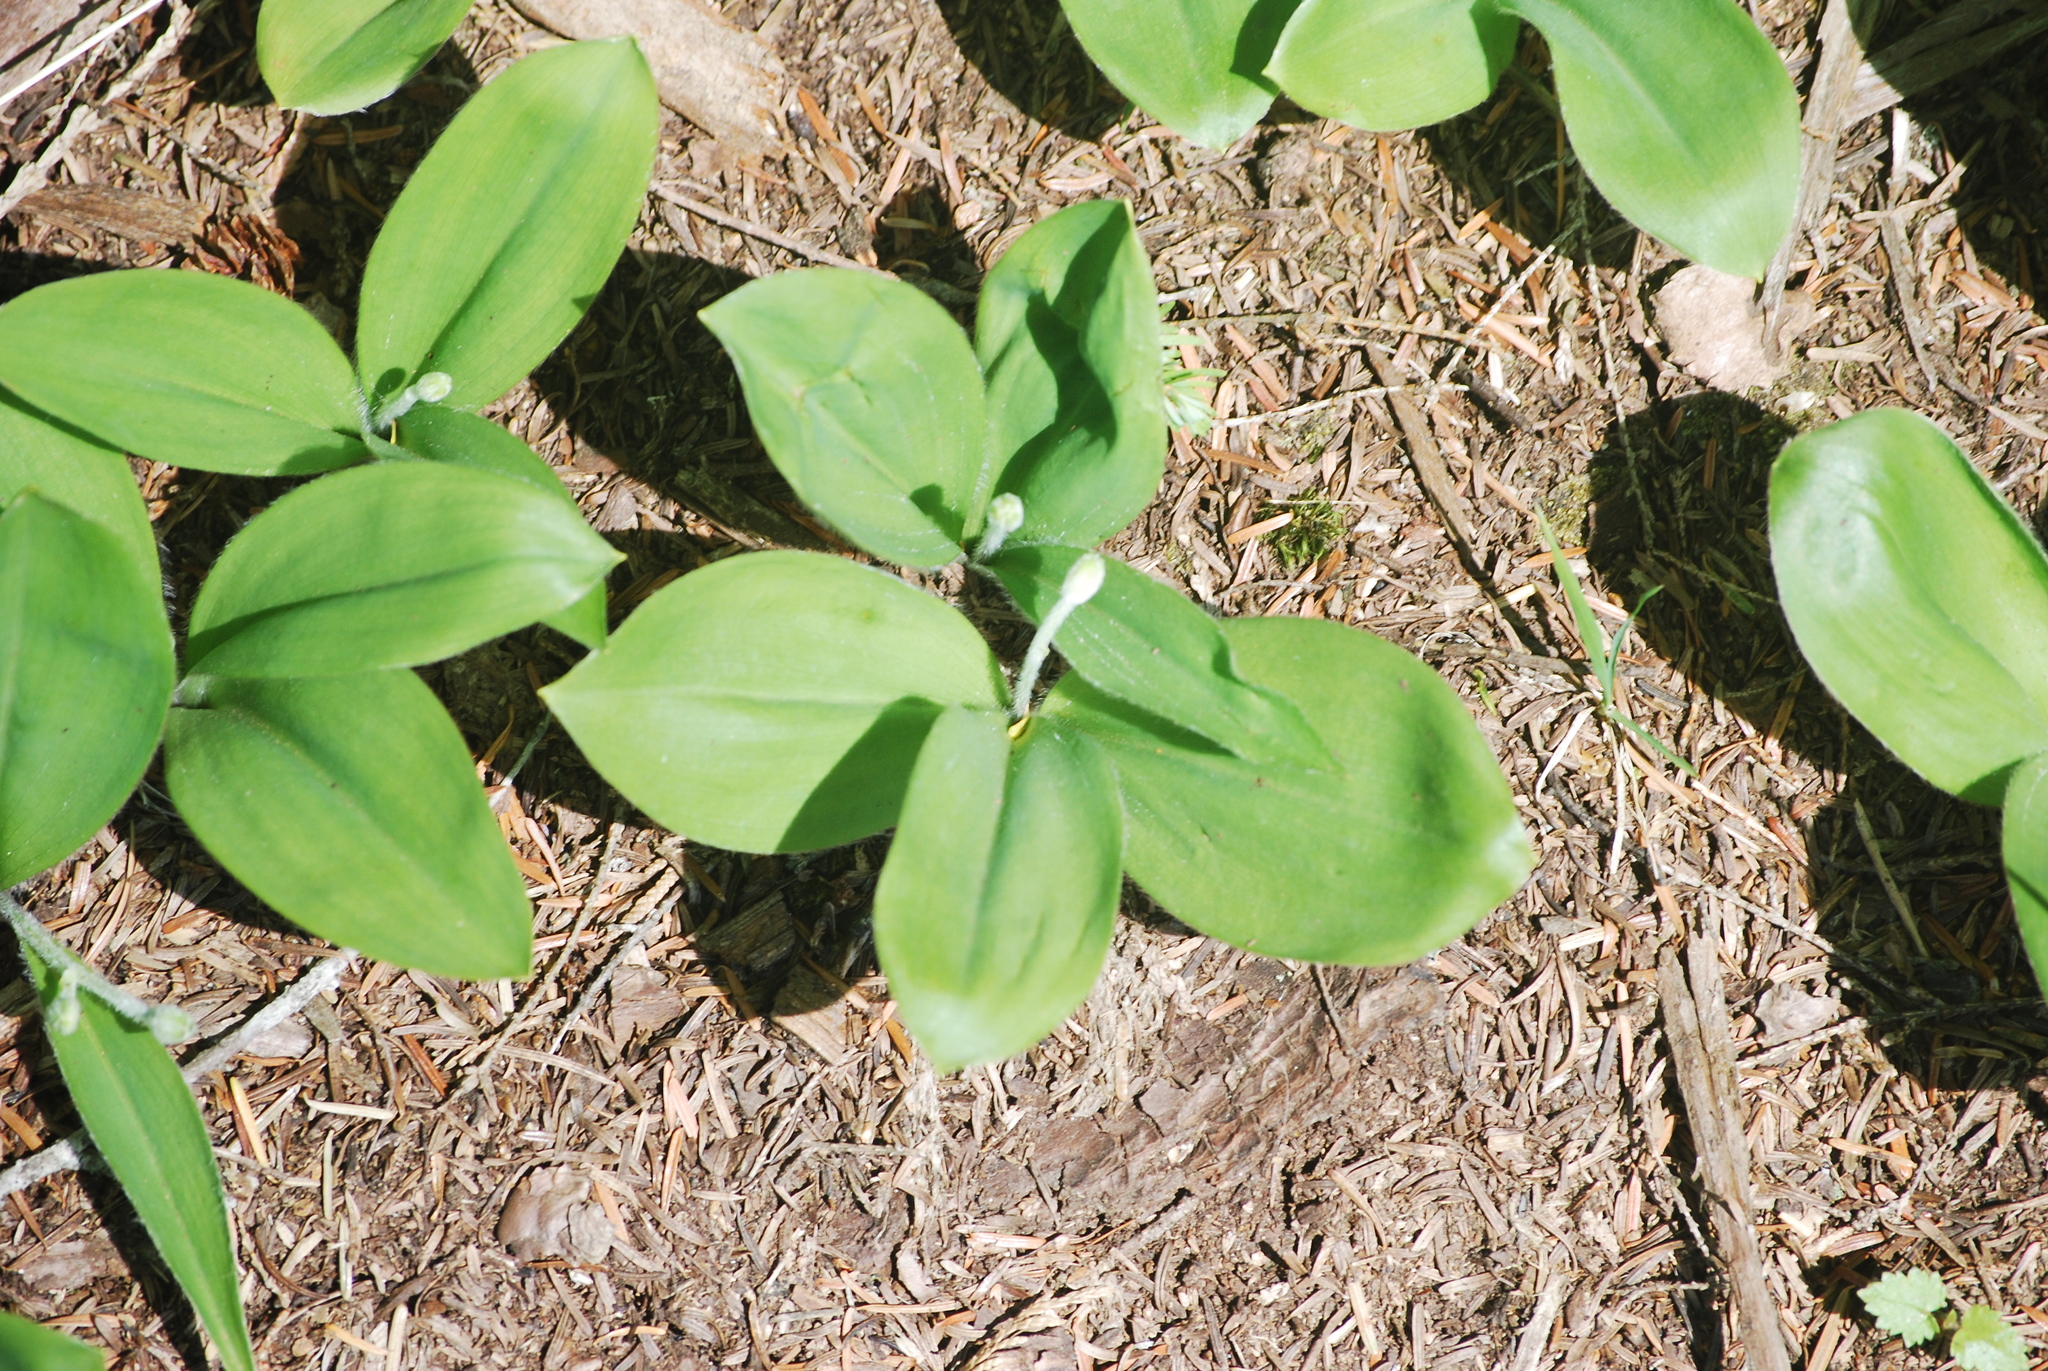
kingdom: Plantae
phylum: Tracheophyta
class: Liliopsida
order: Liliales
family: Liliaceae
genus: Clintonia
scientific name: Clintonia uniflora
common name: Queen's cup
